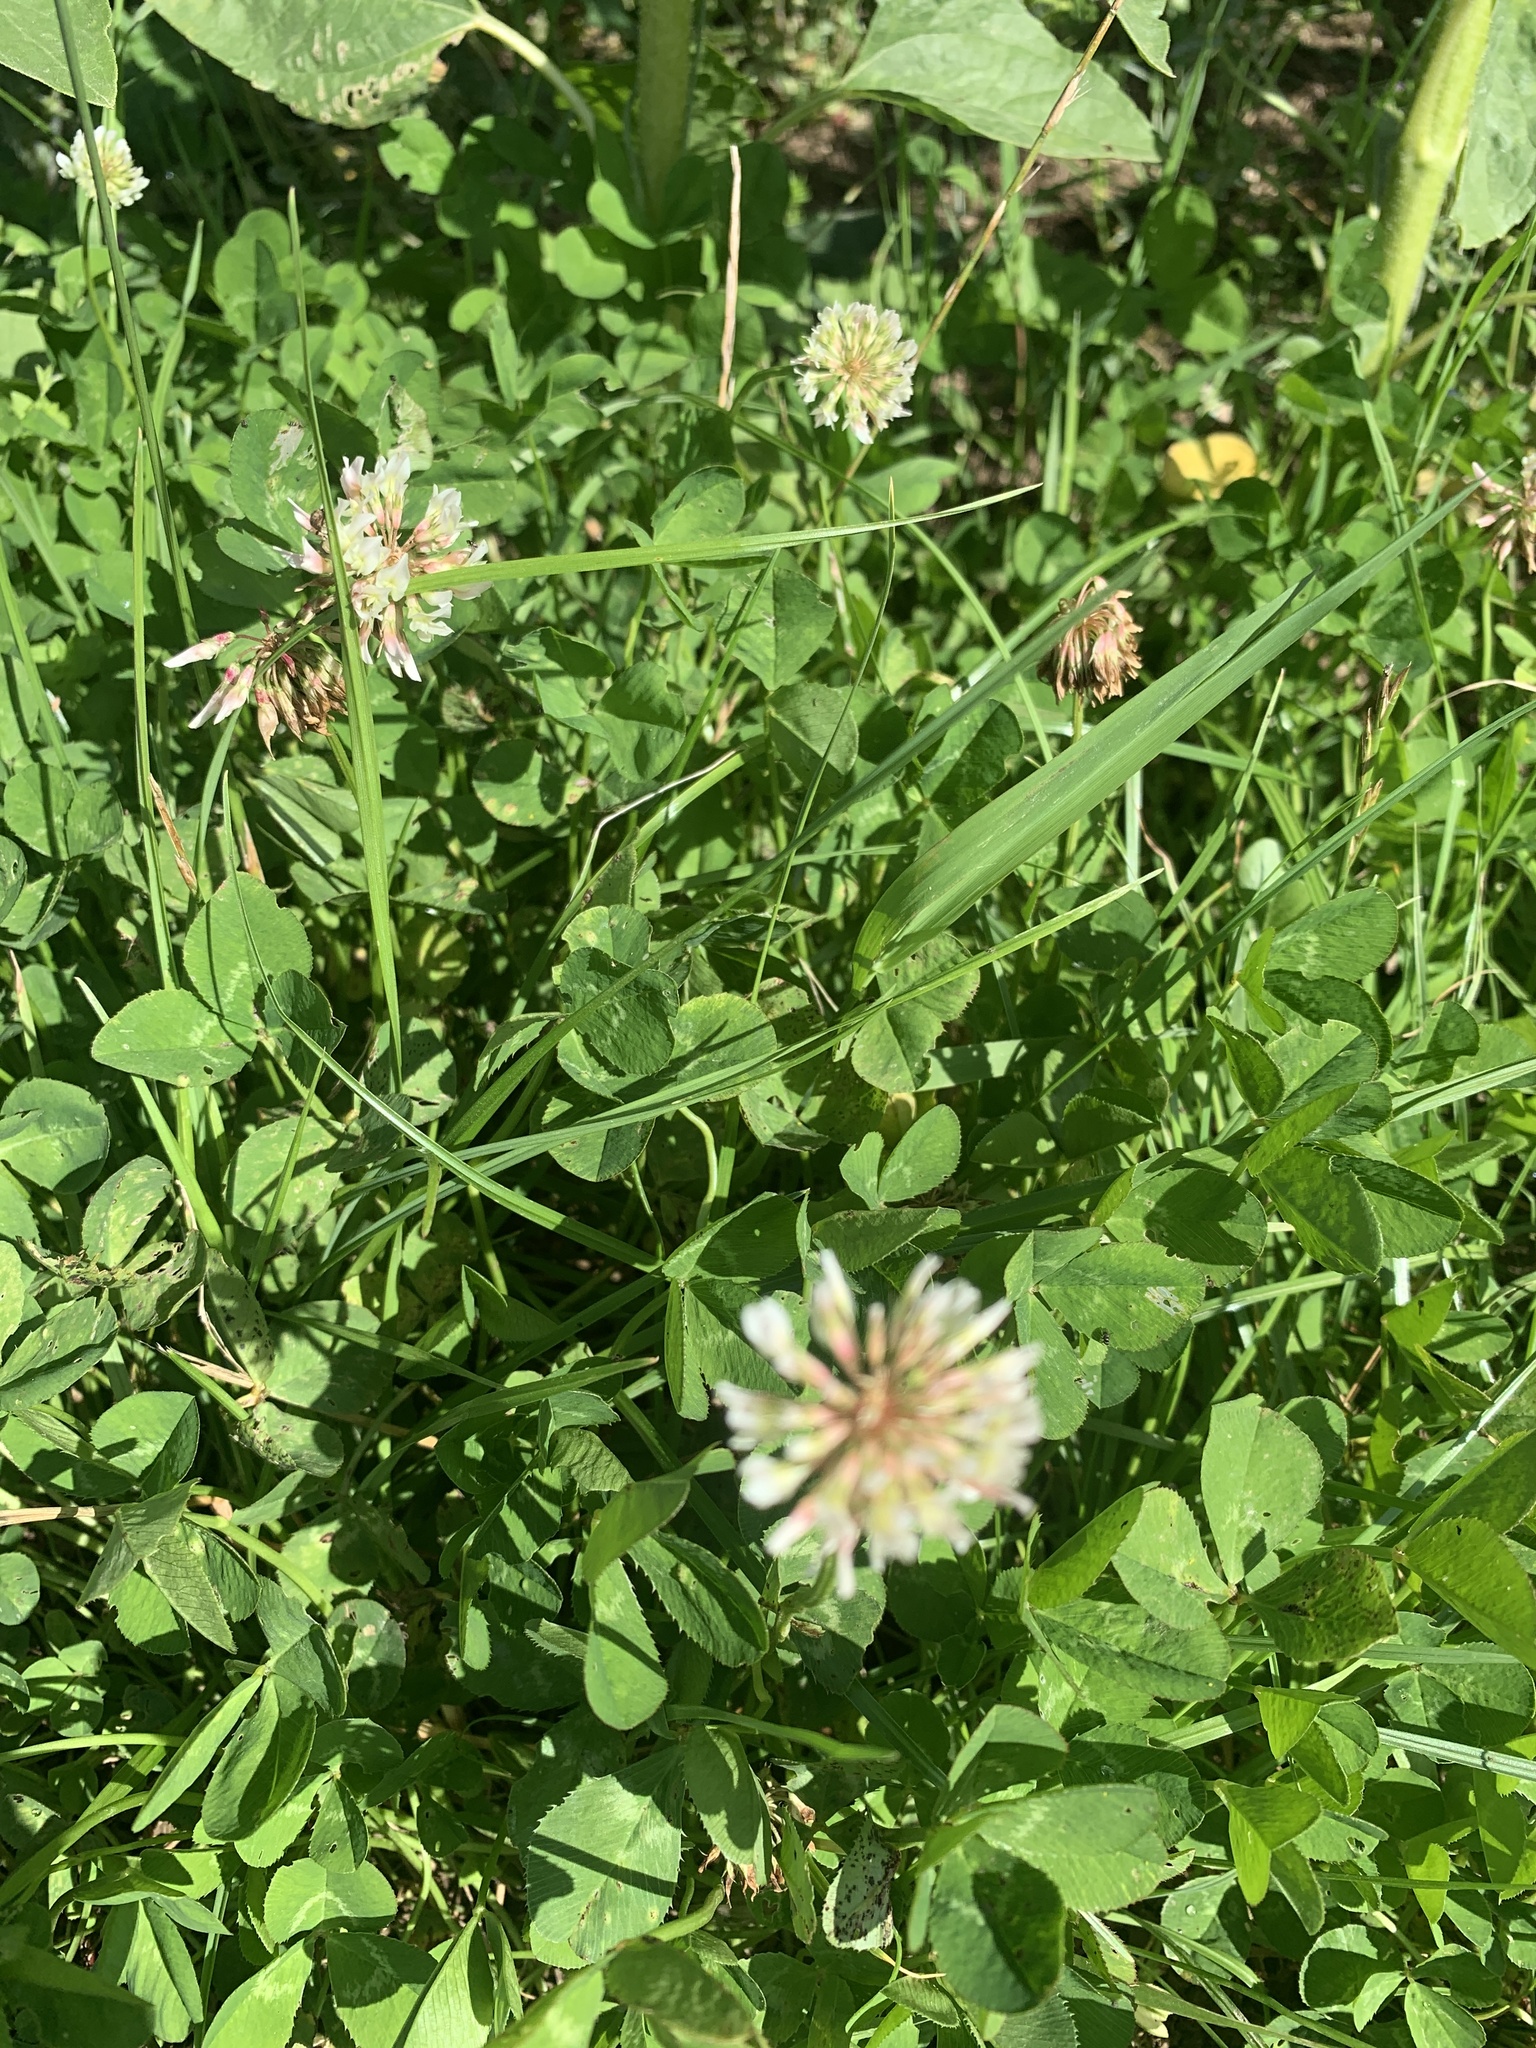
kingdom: Plantae
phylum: Tracheophyta
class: Magnoliopsida
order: Fabales
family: Fabaceae
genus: Trifolium
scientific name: Trifolium repens
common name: White clover
